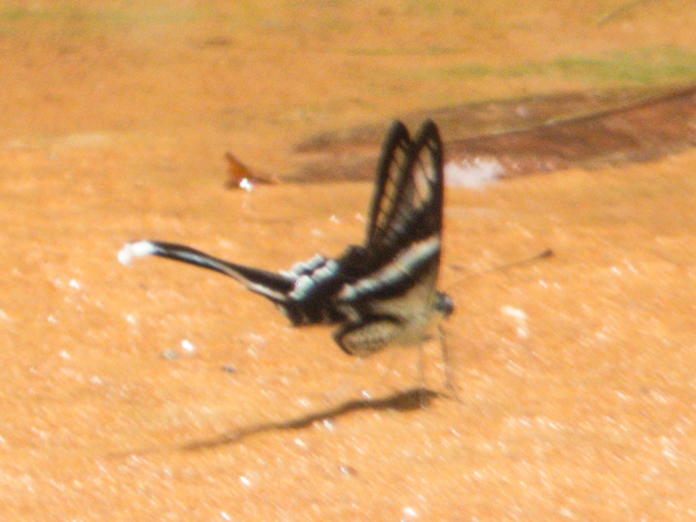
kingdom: Animalia
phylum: Arthropoda
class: Insecta
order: Lepidoptera
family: Papilionidae
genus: Lamproptera
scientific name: Lamproptera curius
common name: White dragontail
